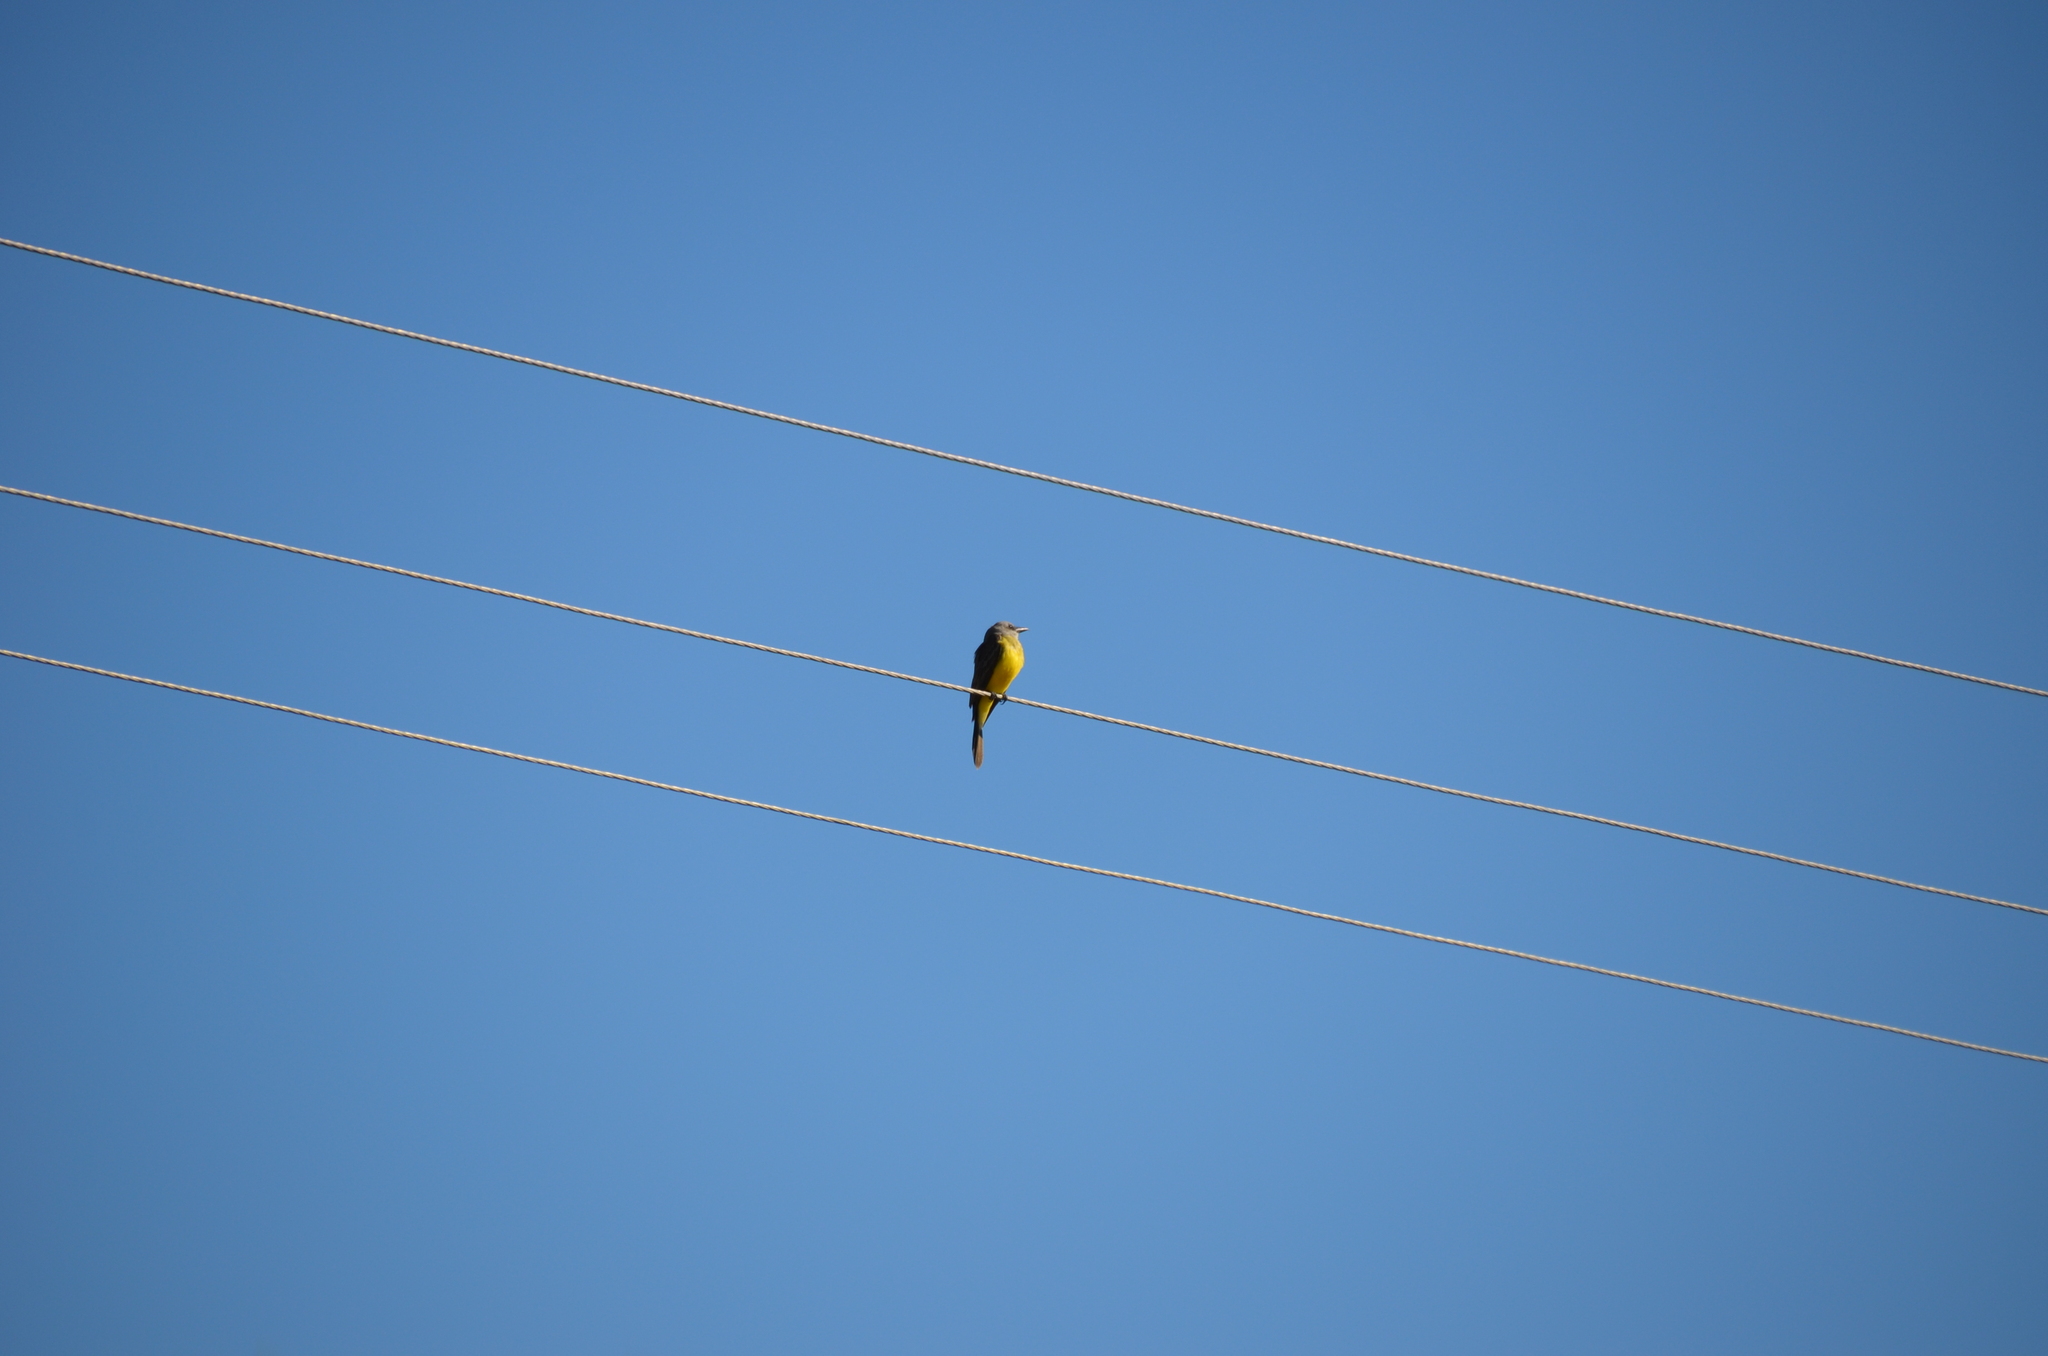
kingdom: Animalia
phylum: Chordata
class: Aves
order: Passeriformes
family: Tyrannidae
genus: Tyrannus
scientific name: Tyrannus melancholicus
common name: Tropical kingbird
